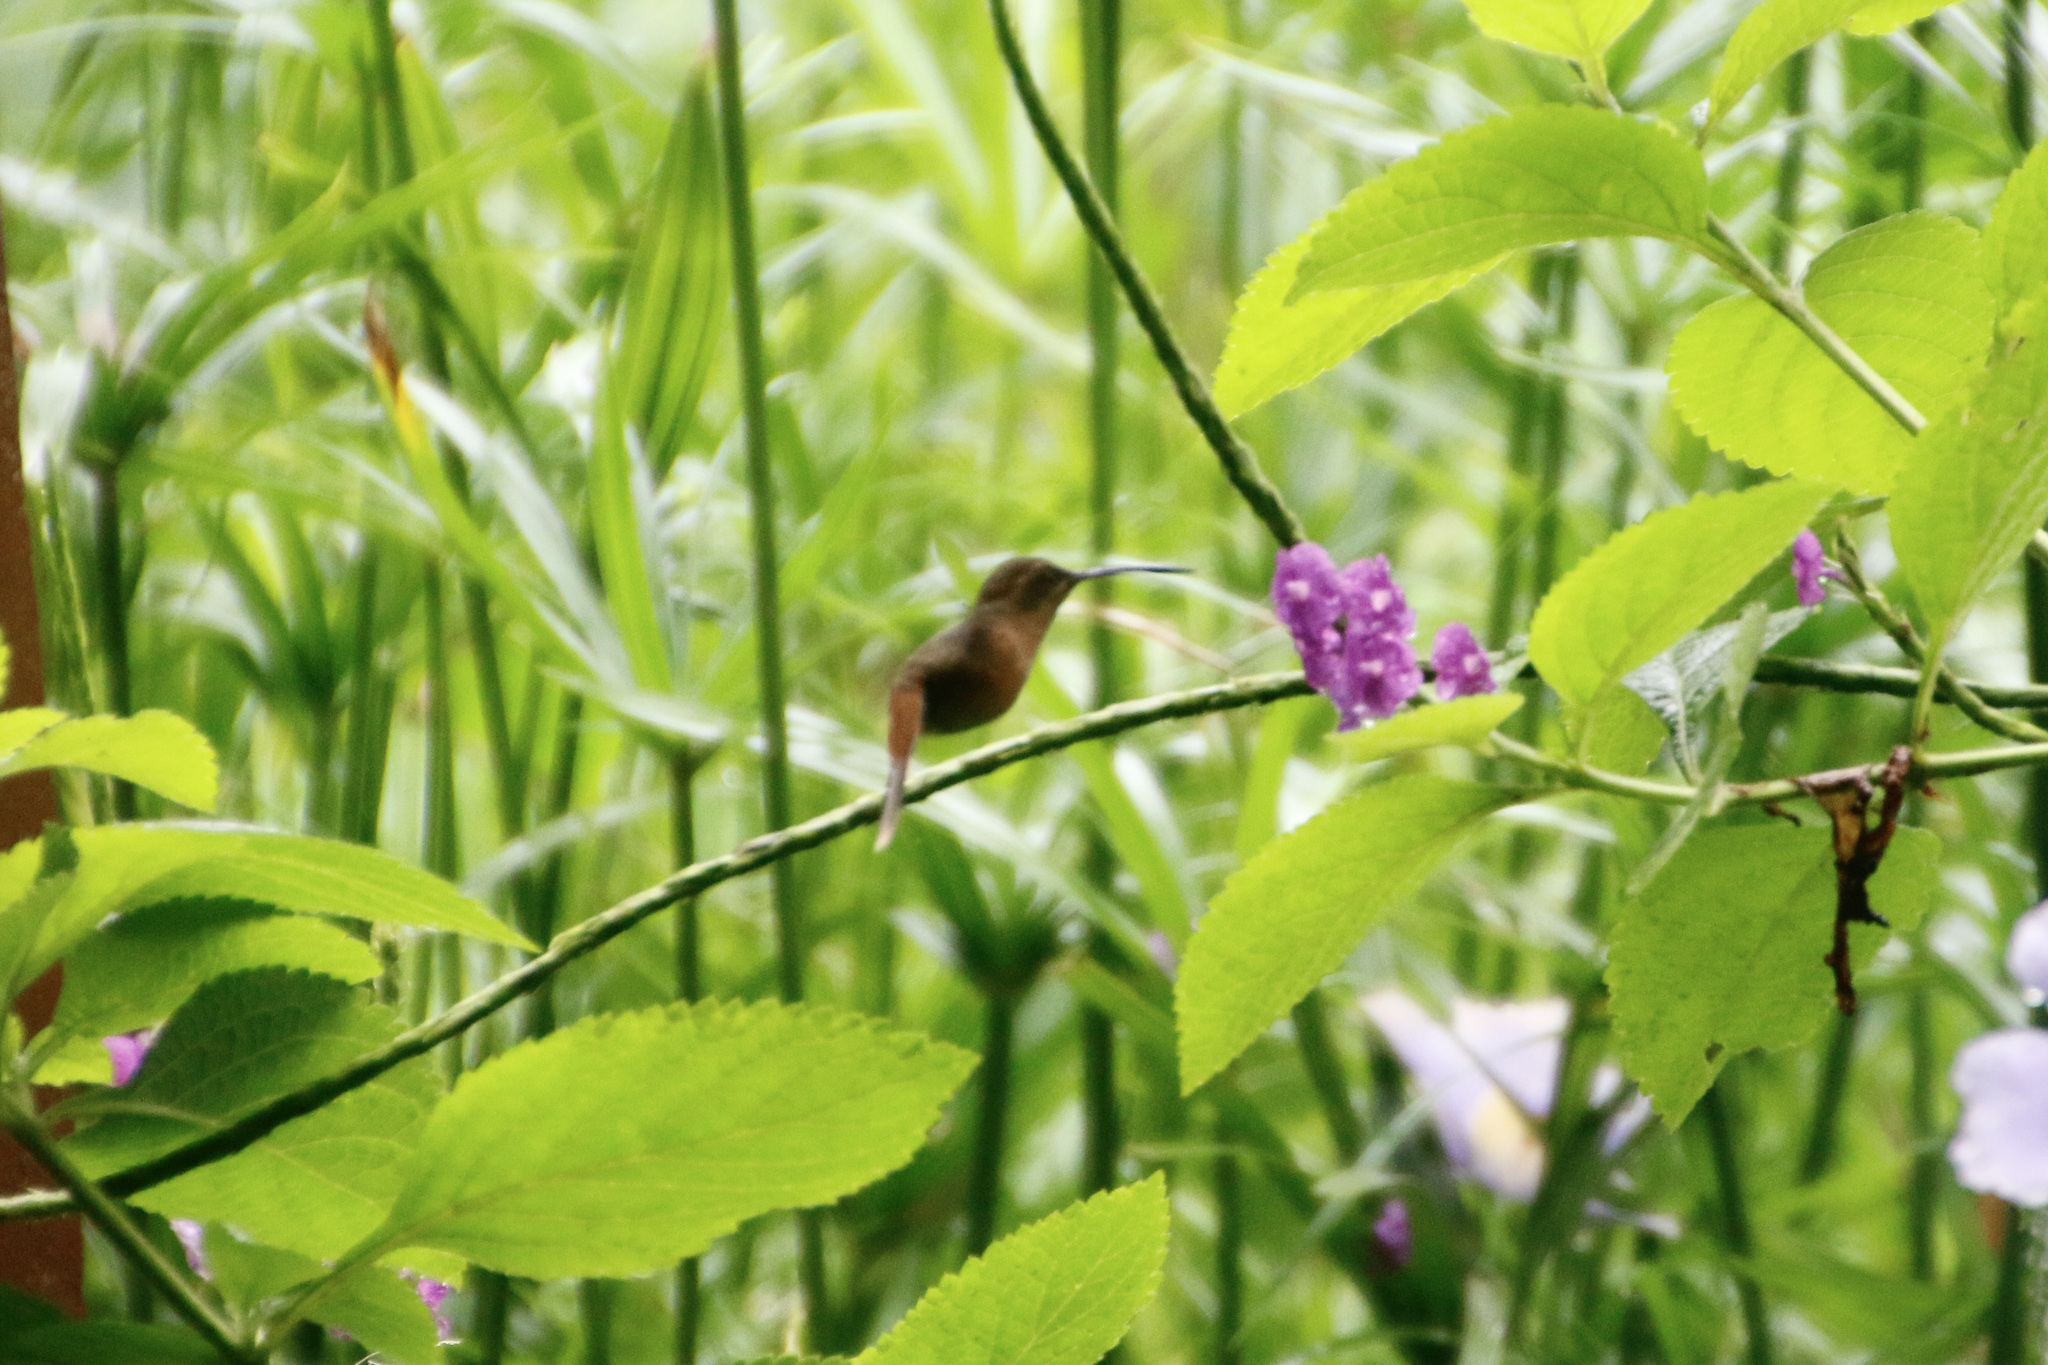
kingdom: Animalia
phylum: Chordata
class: Aves
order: Apodiformes
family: Trochilidae
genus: Phaethornis
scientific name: Phaethornis striigularis
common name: Stripe-throated hermit
